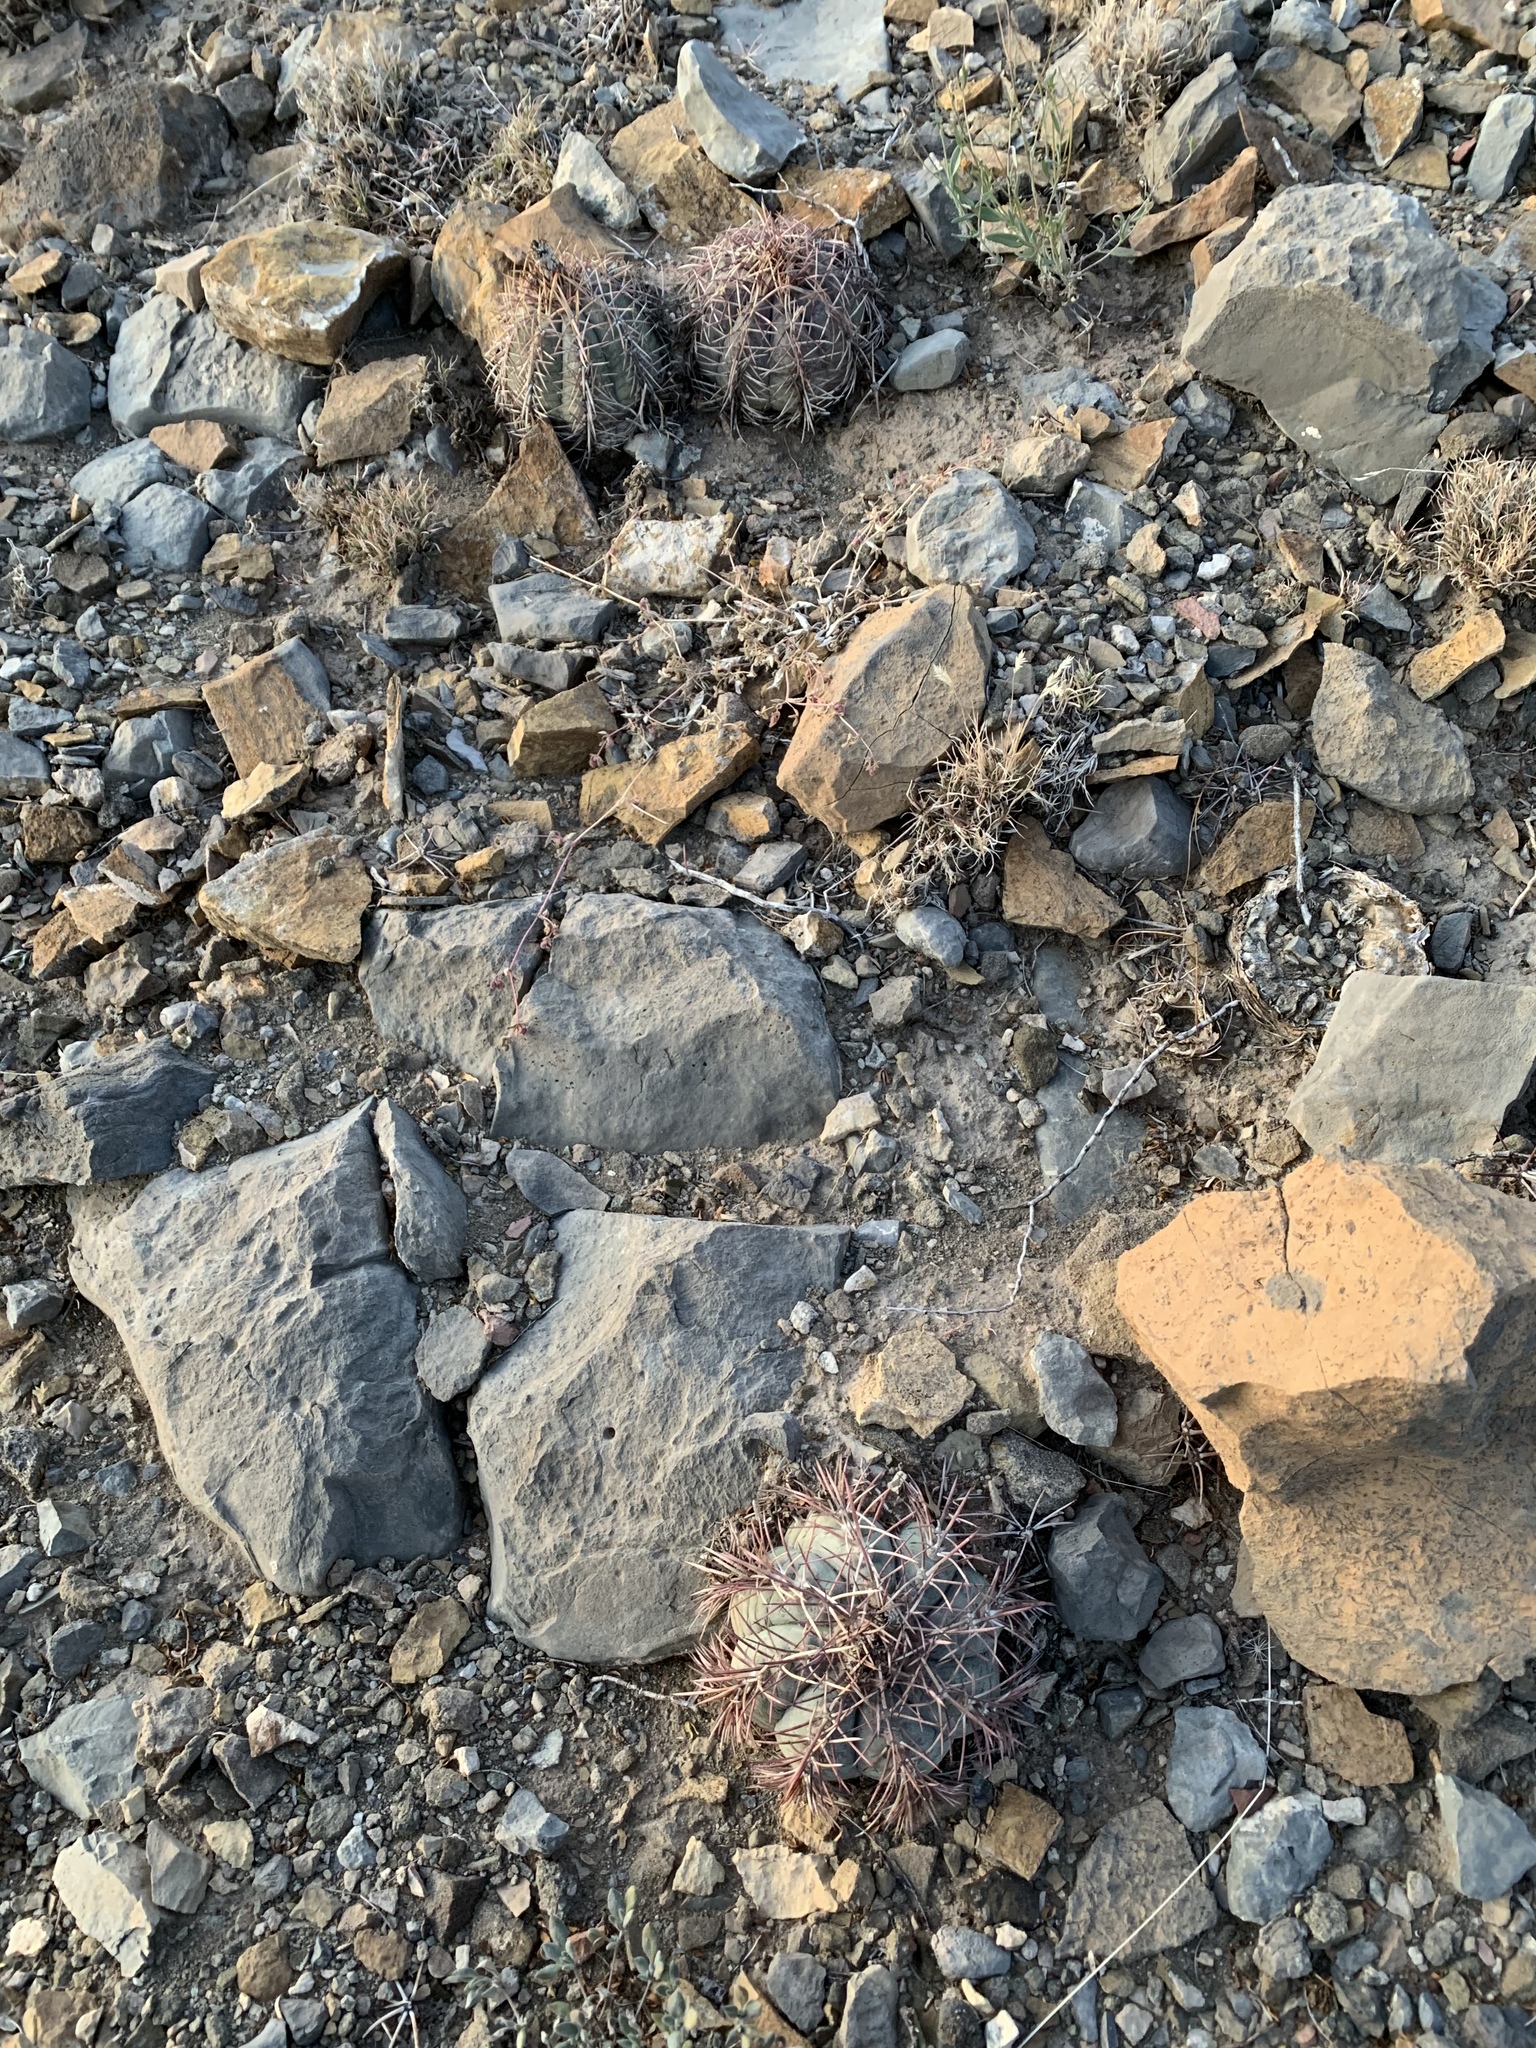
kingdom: Plantae
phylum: Tracheophyta
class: Magnoliopsida
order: Caryophyllales
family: Cactaceae
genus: Echinocactus
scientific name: Echinocactus horizonthalonius
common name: Devilshead
